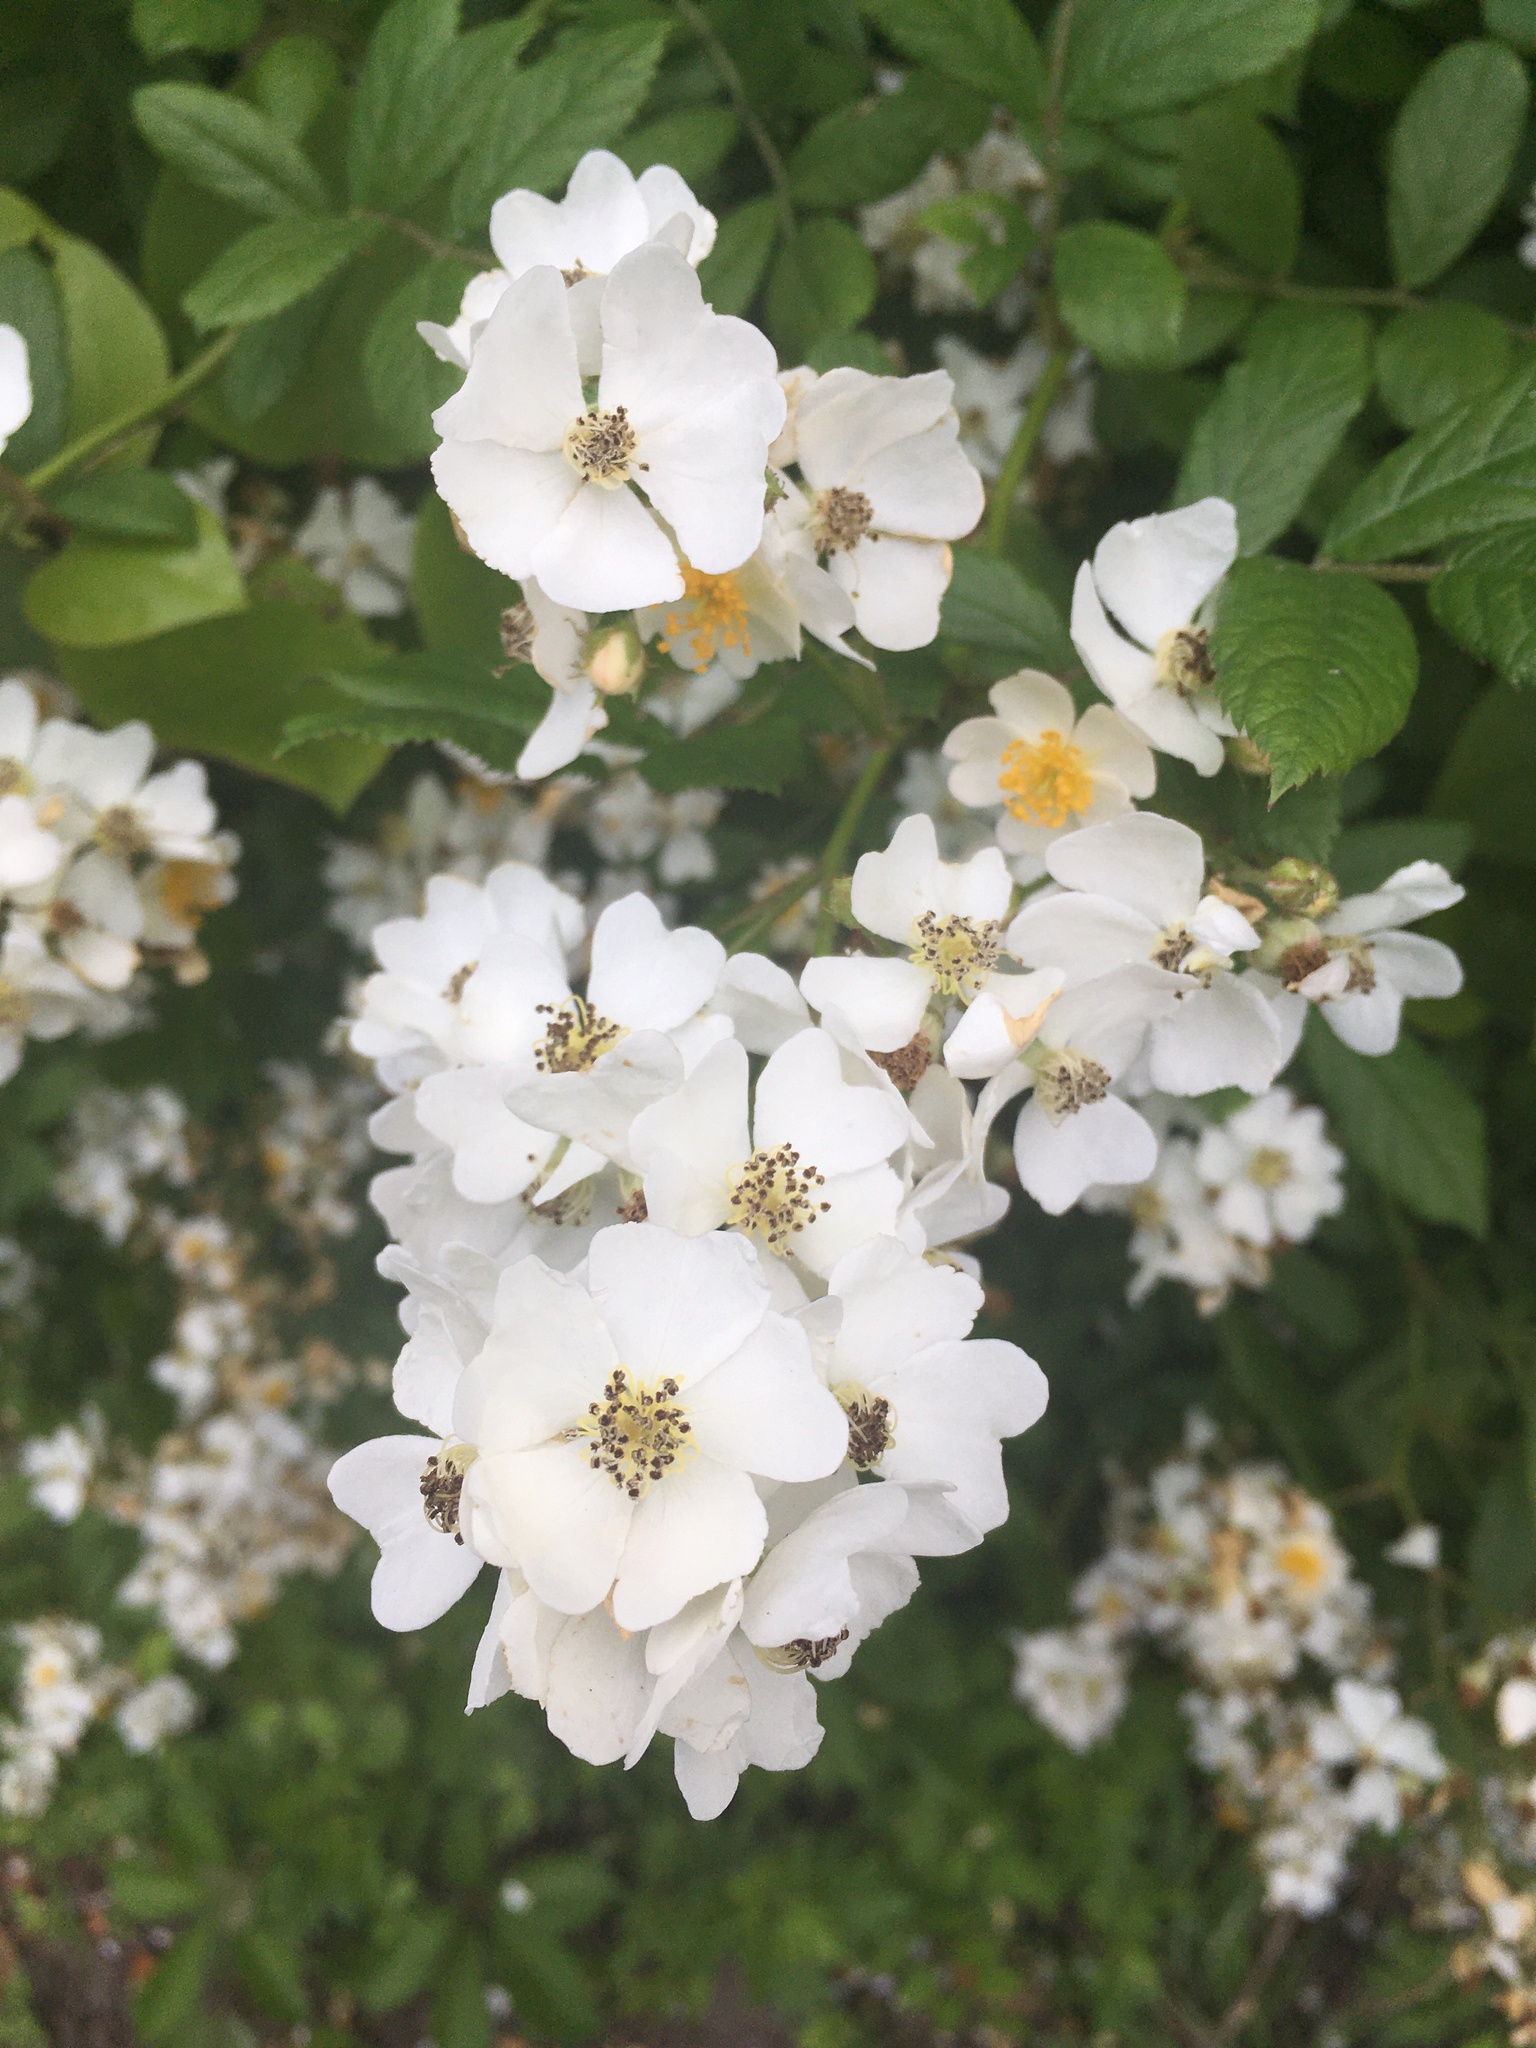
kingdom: Plantae
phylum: Tracheophyta
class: Magnoliopsida
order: Rosales
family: Rosaceae
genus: Rosa
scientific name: Rosa multiflora
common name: Multiflora rose
